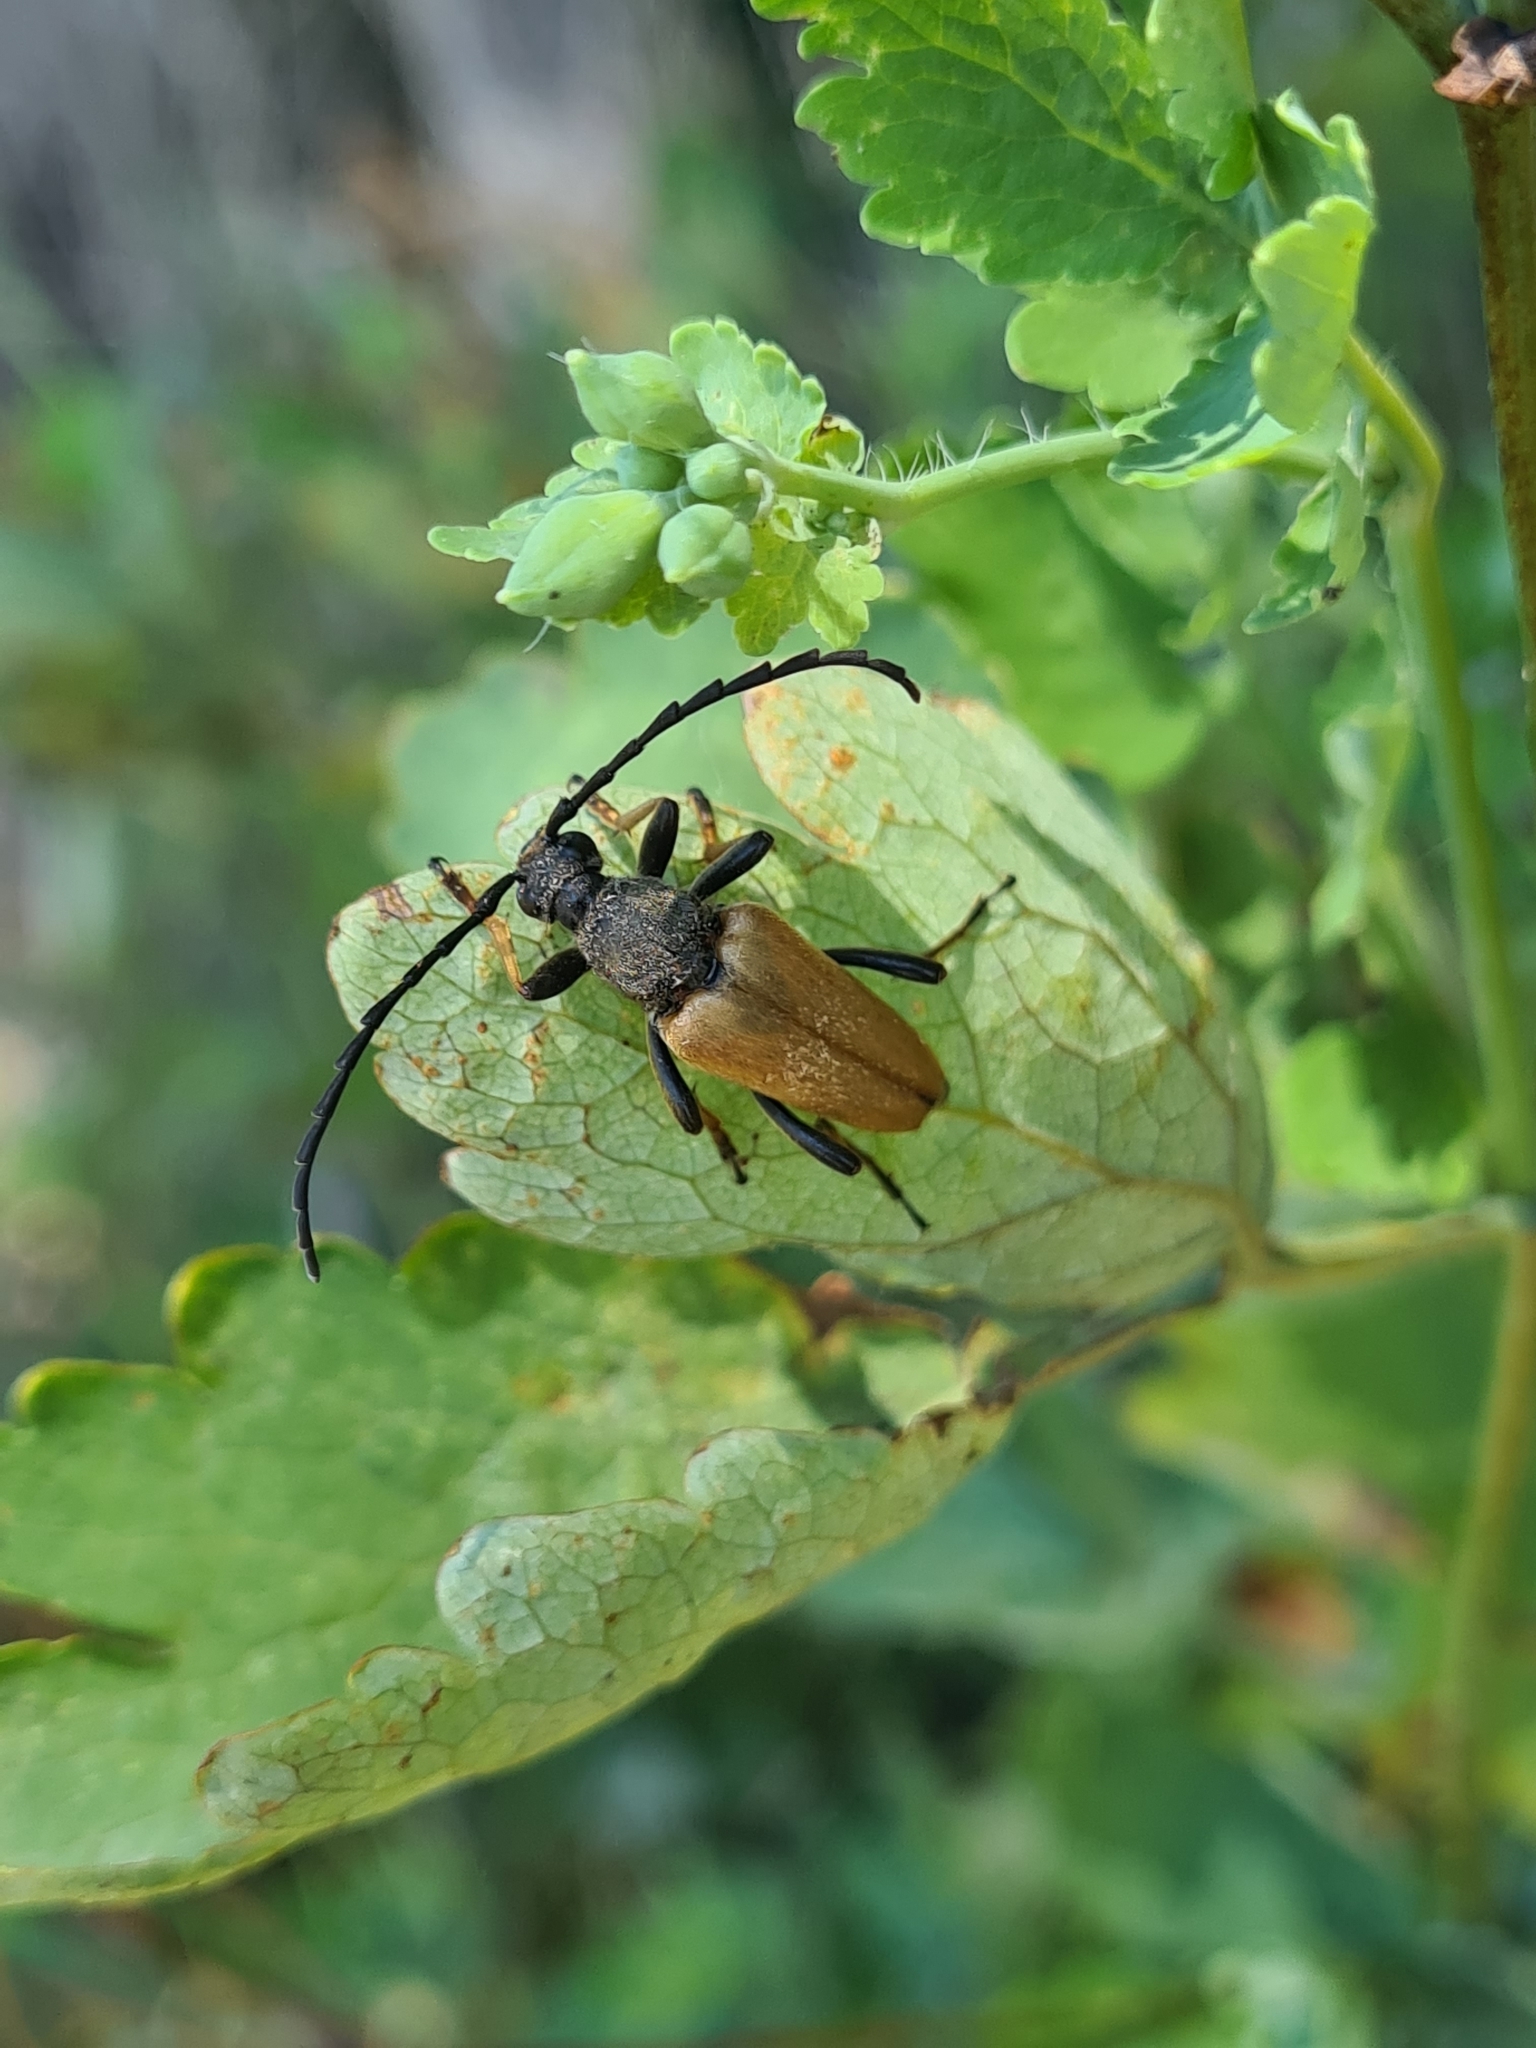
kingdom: Animalia
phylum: Arthropoda
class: Insecta
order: Coleoptera
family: Cerambycidae
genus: Stictoleptura
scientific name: Stictoleptura rubra
